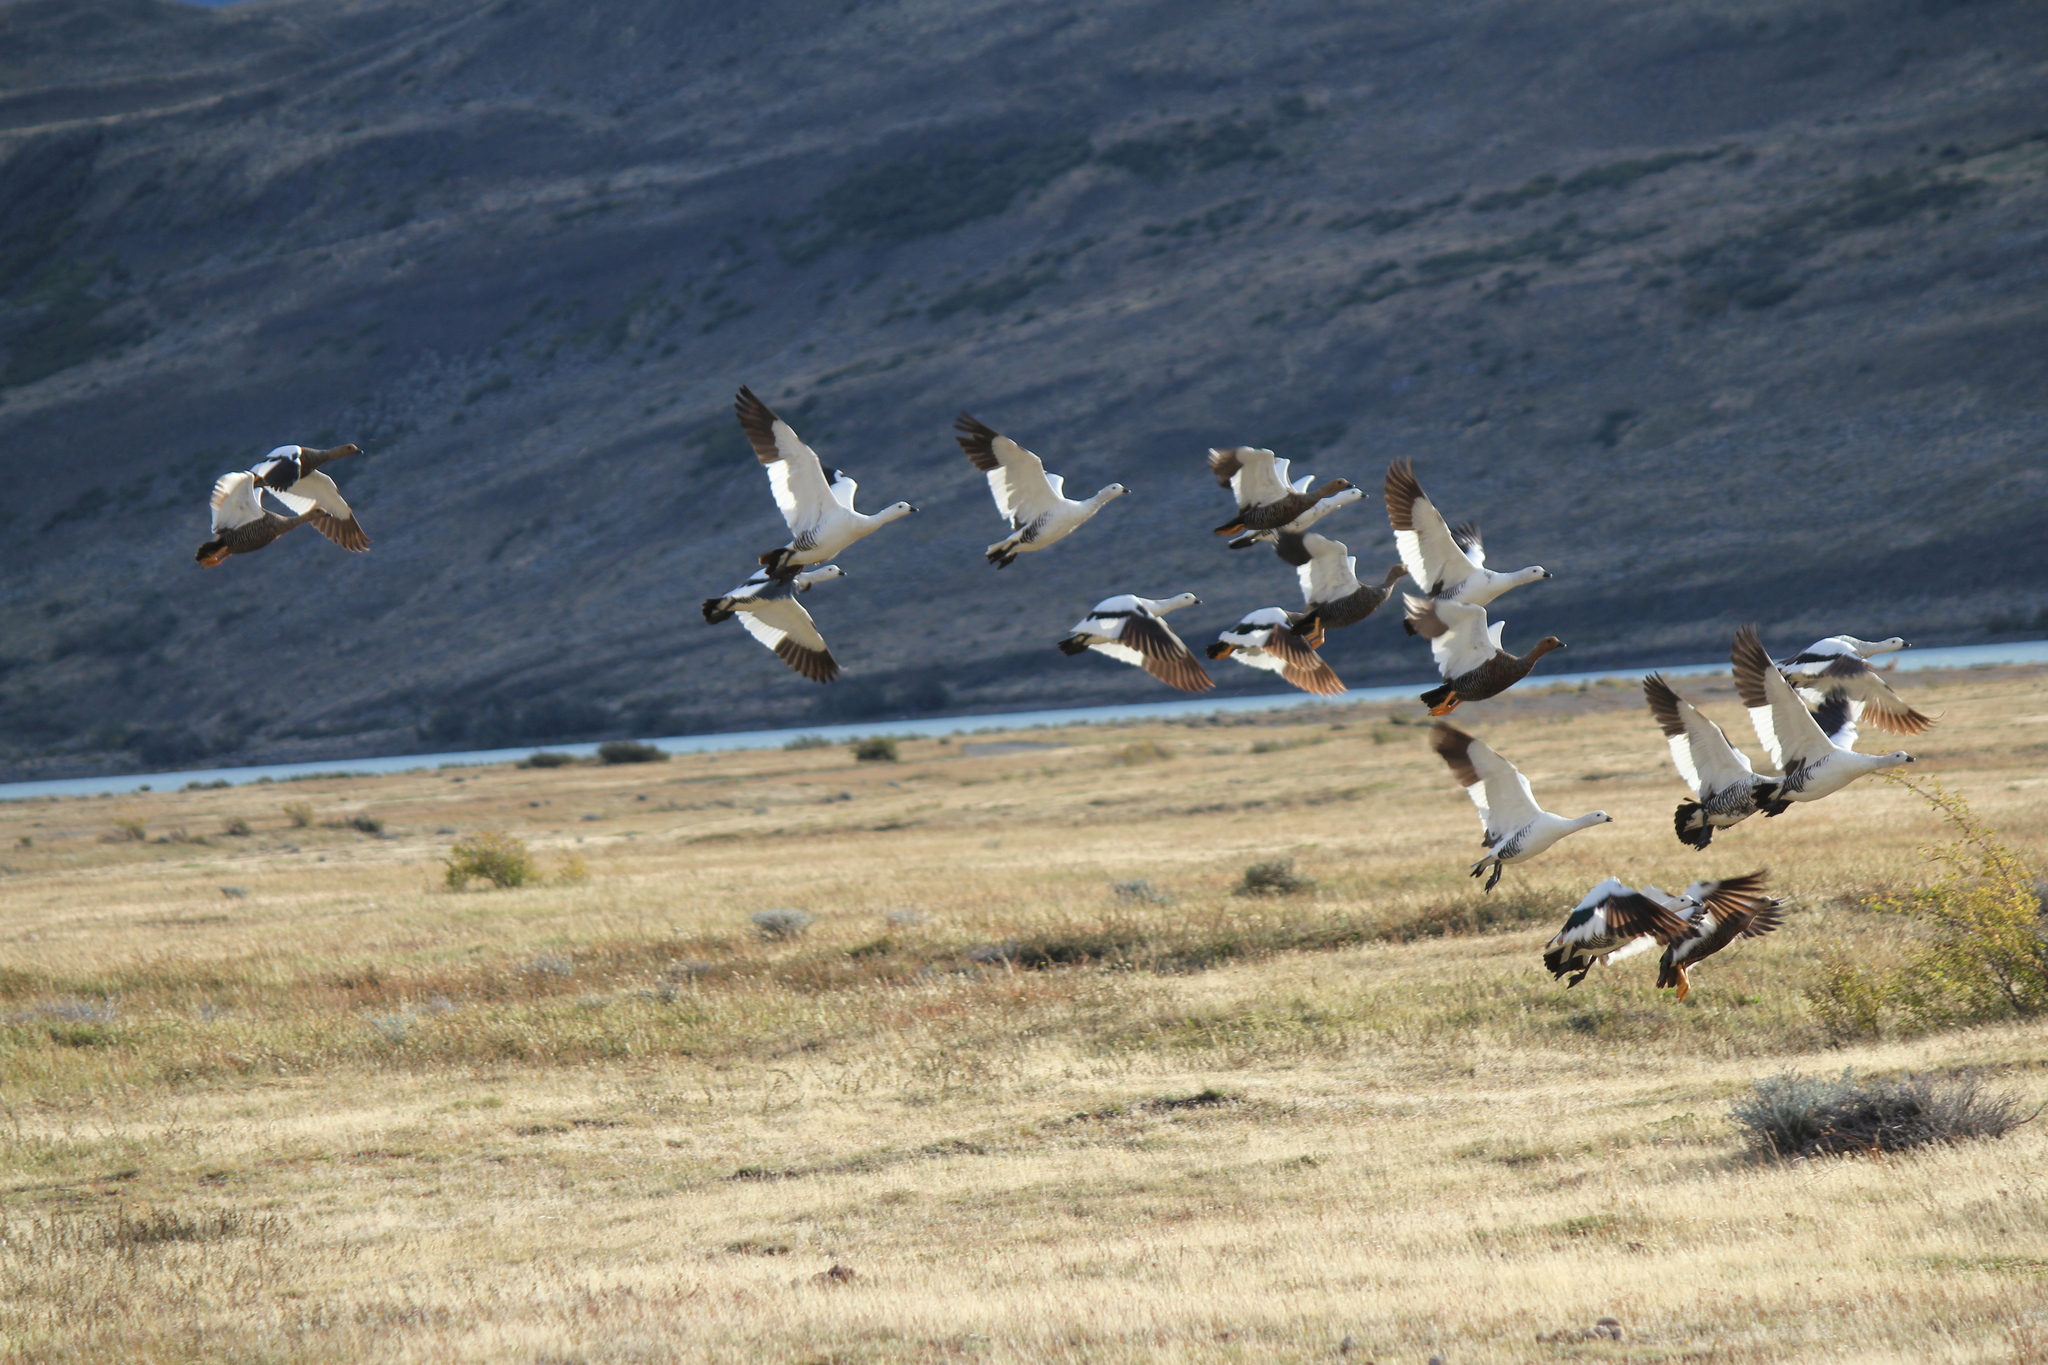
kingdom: Animalia
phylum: Chordata
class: Aves
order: Anseriformes
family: Anatidae
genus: Chloephaga
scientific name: Chloephaga picta
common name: Upland goose
